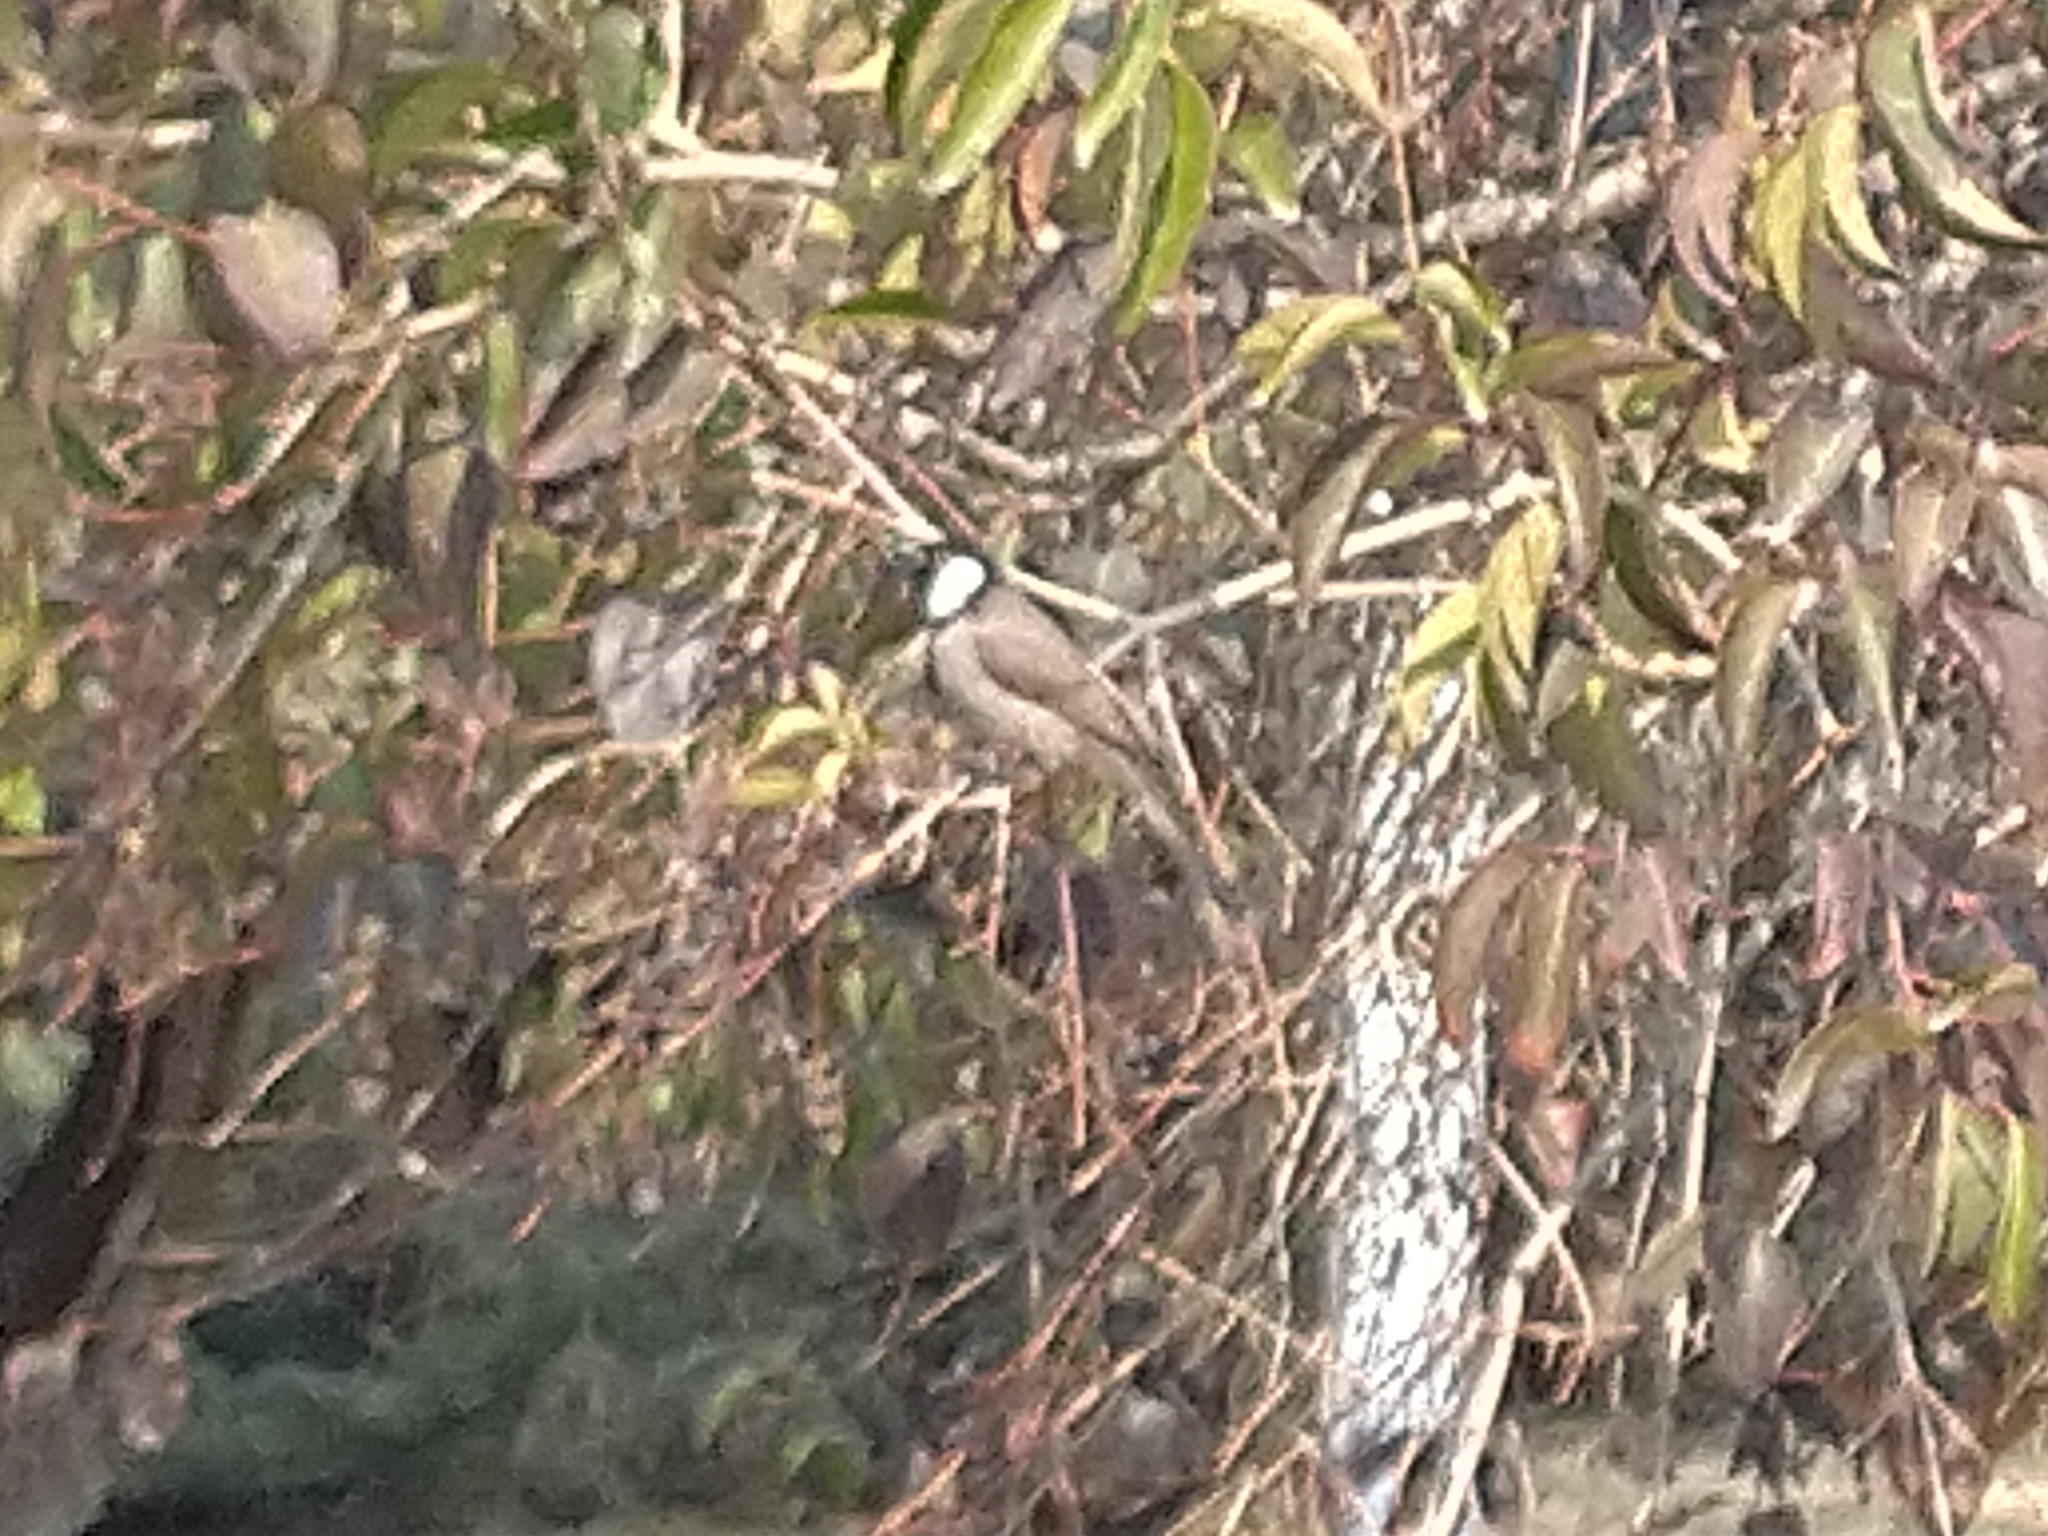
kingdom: Animalia
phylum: Chordata
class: Aves
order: Passeriformes
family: Pycnonotidae
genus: Pycnonotus
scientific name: Pycnonotus leucotis
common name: White-eared bulbul
